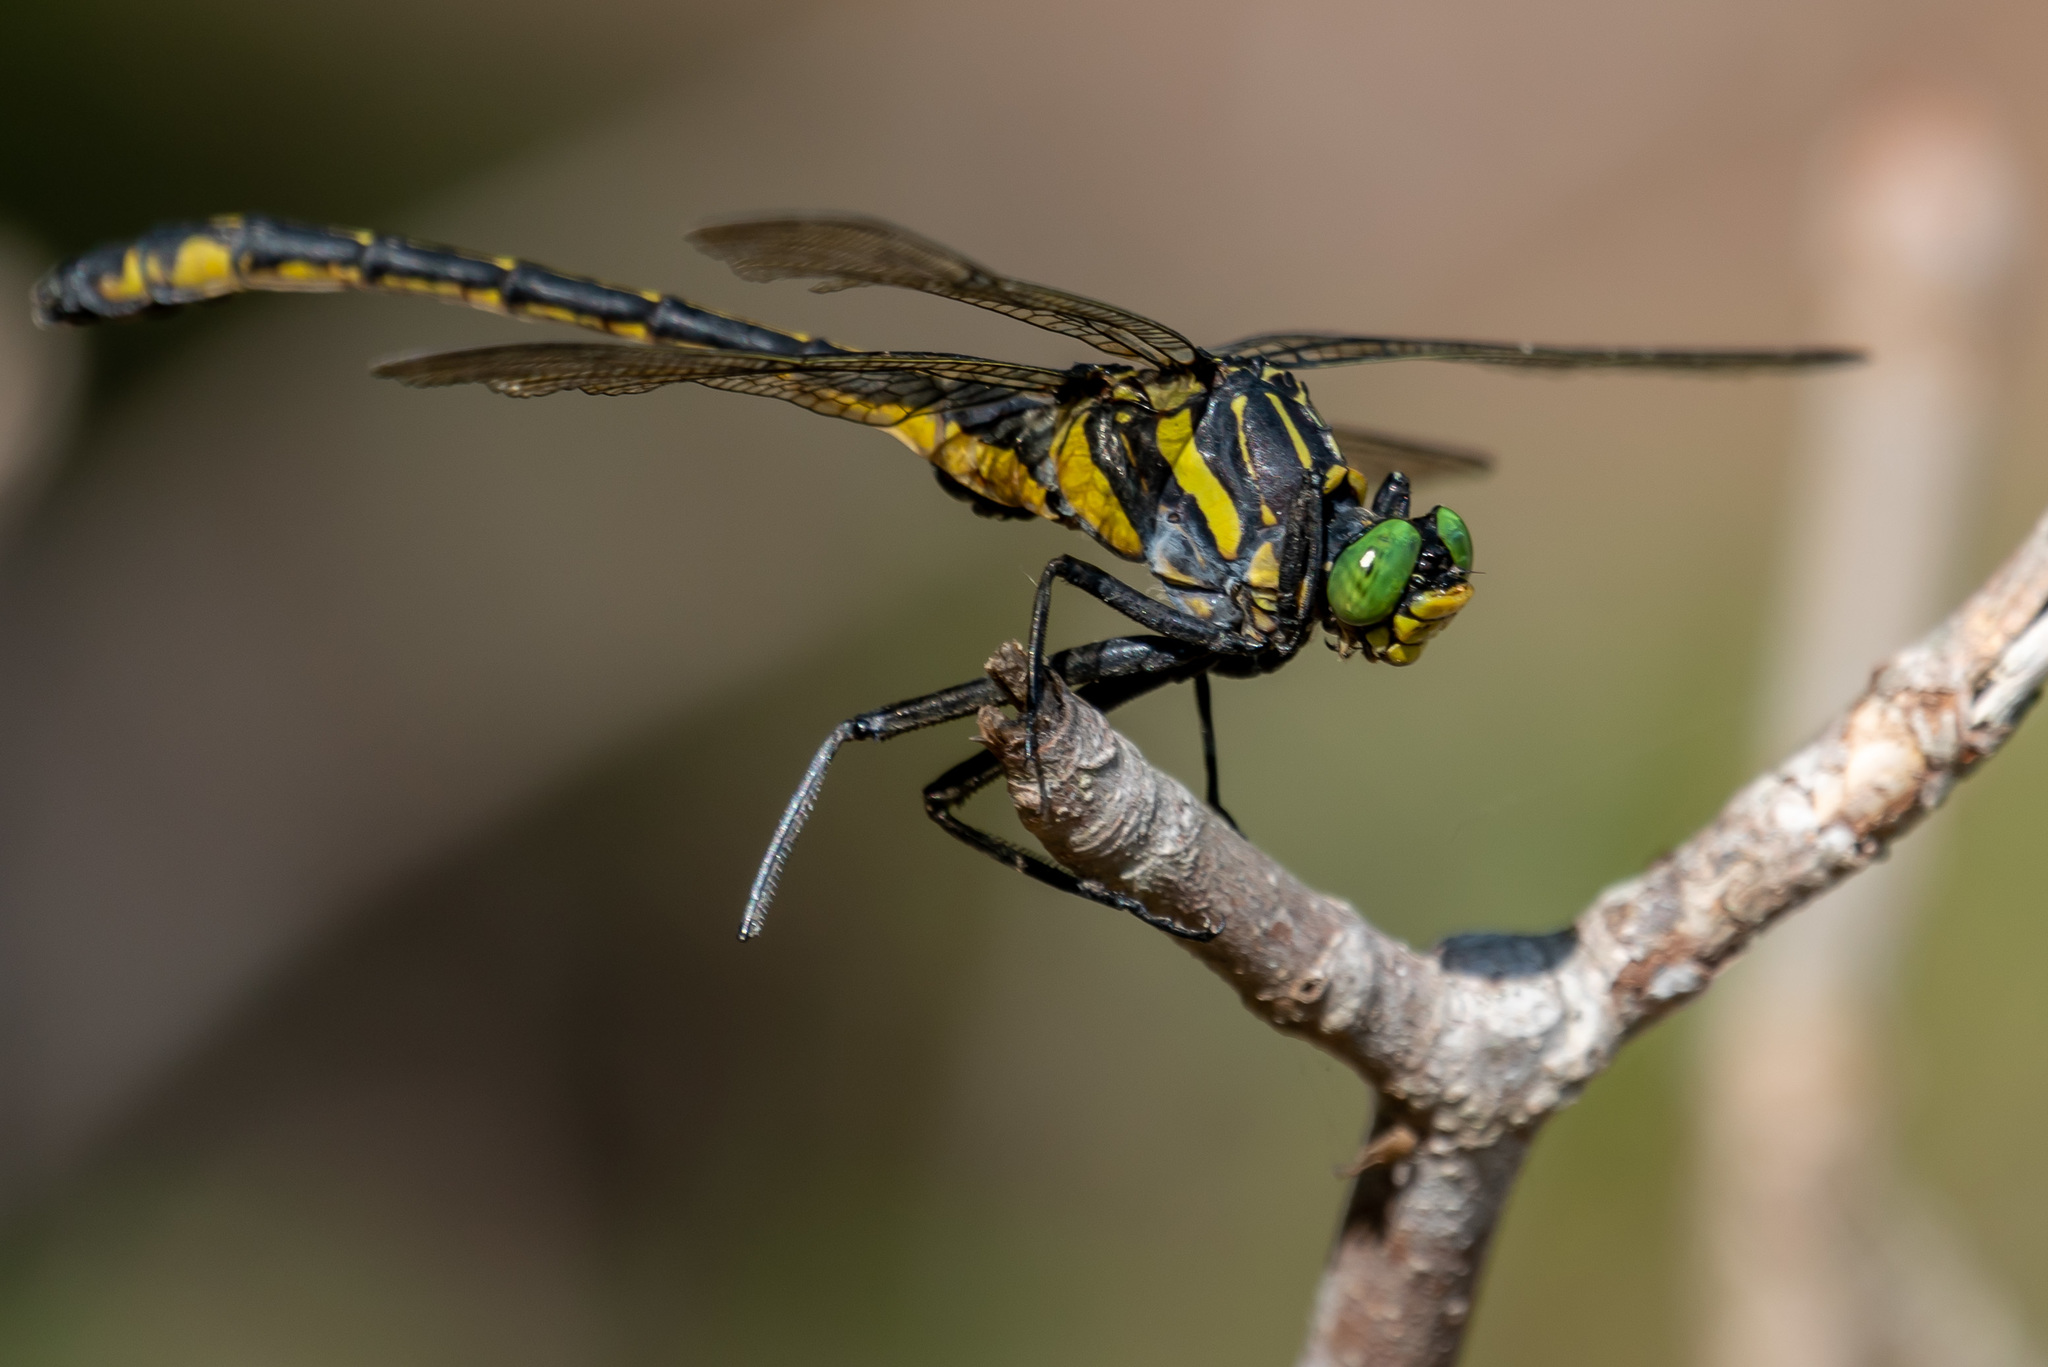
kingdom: Animalia
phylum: Arthropoda
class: Insecta
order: Odonata
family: Gomphidae
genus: Hagenius
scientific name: Hagenius brevistylus
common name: Dragonhunter
